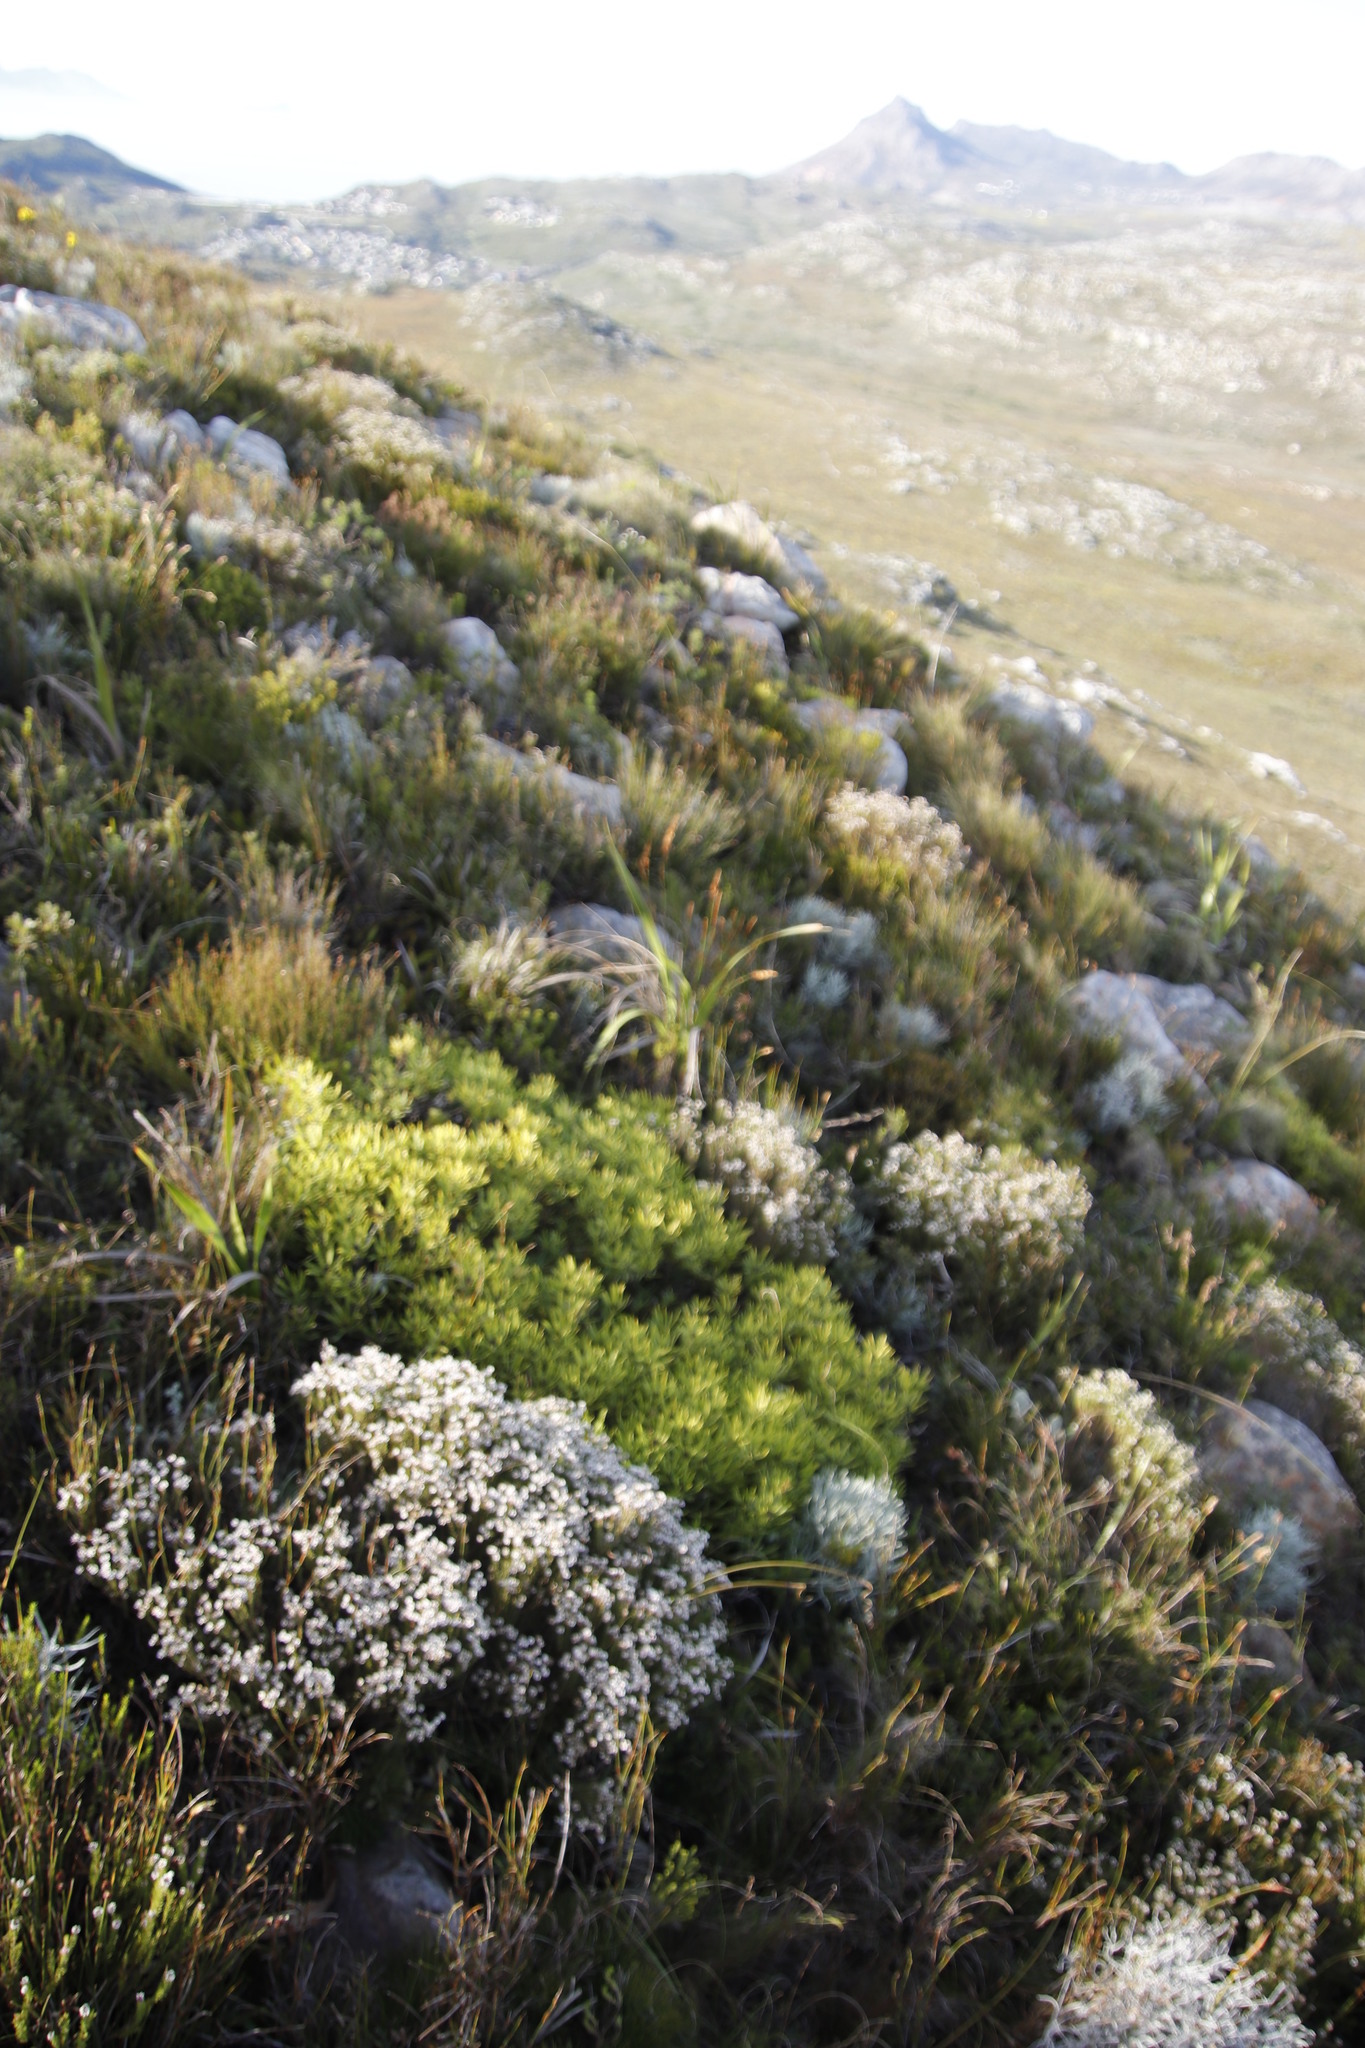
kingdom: Plantae
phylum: Tracheophyta
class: Magnoliopsida
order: Proteales
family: Proteaceae
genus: Leucadendron
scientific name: Leucadendron salignum
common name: Common sunshine conebush
